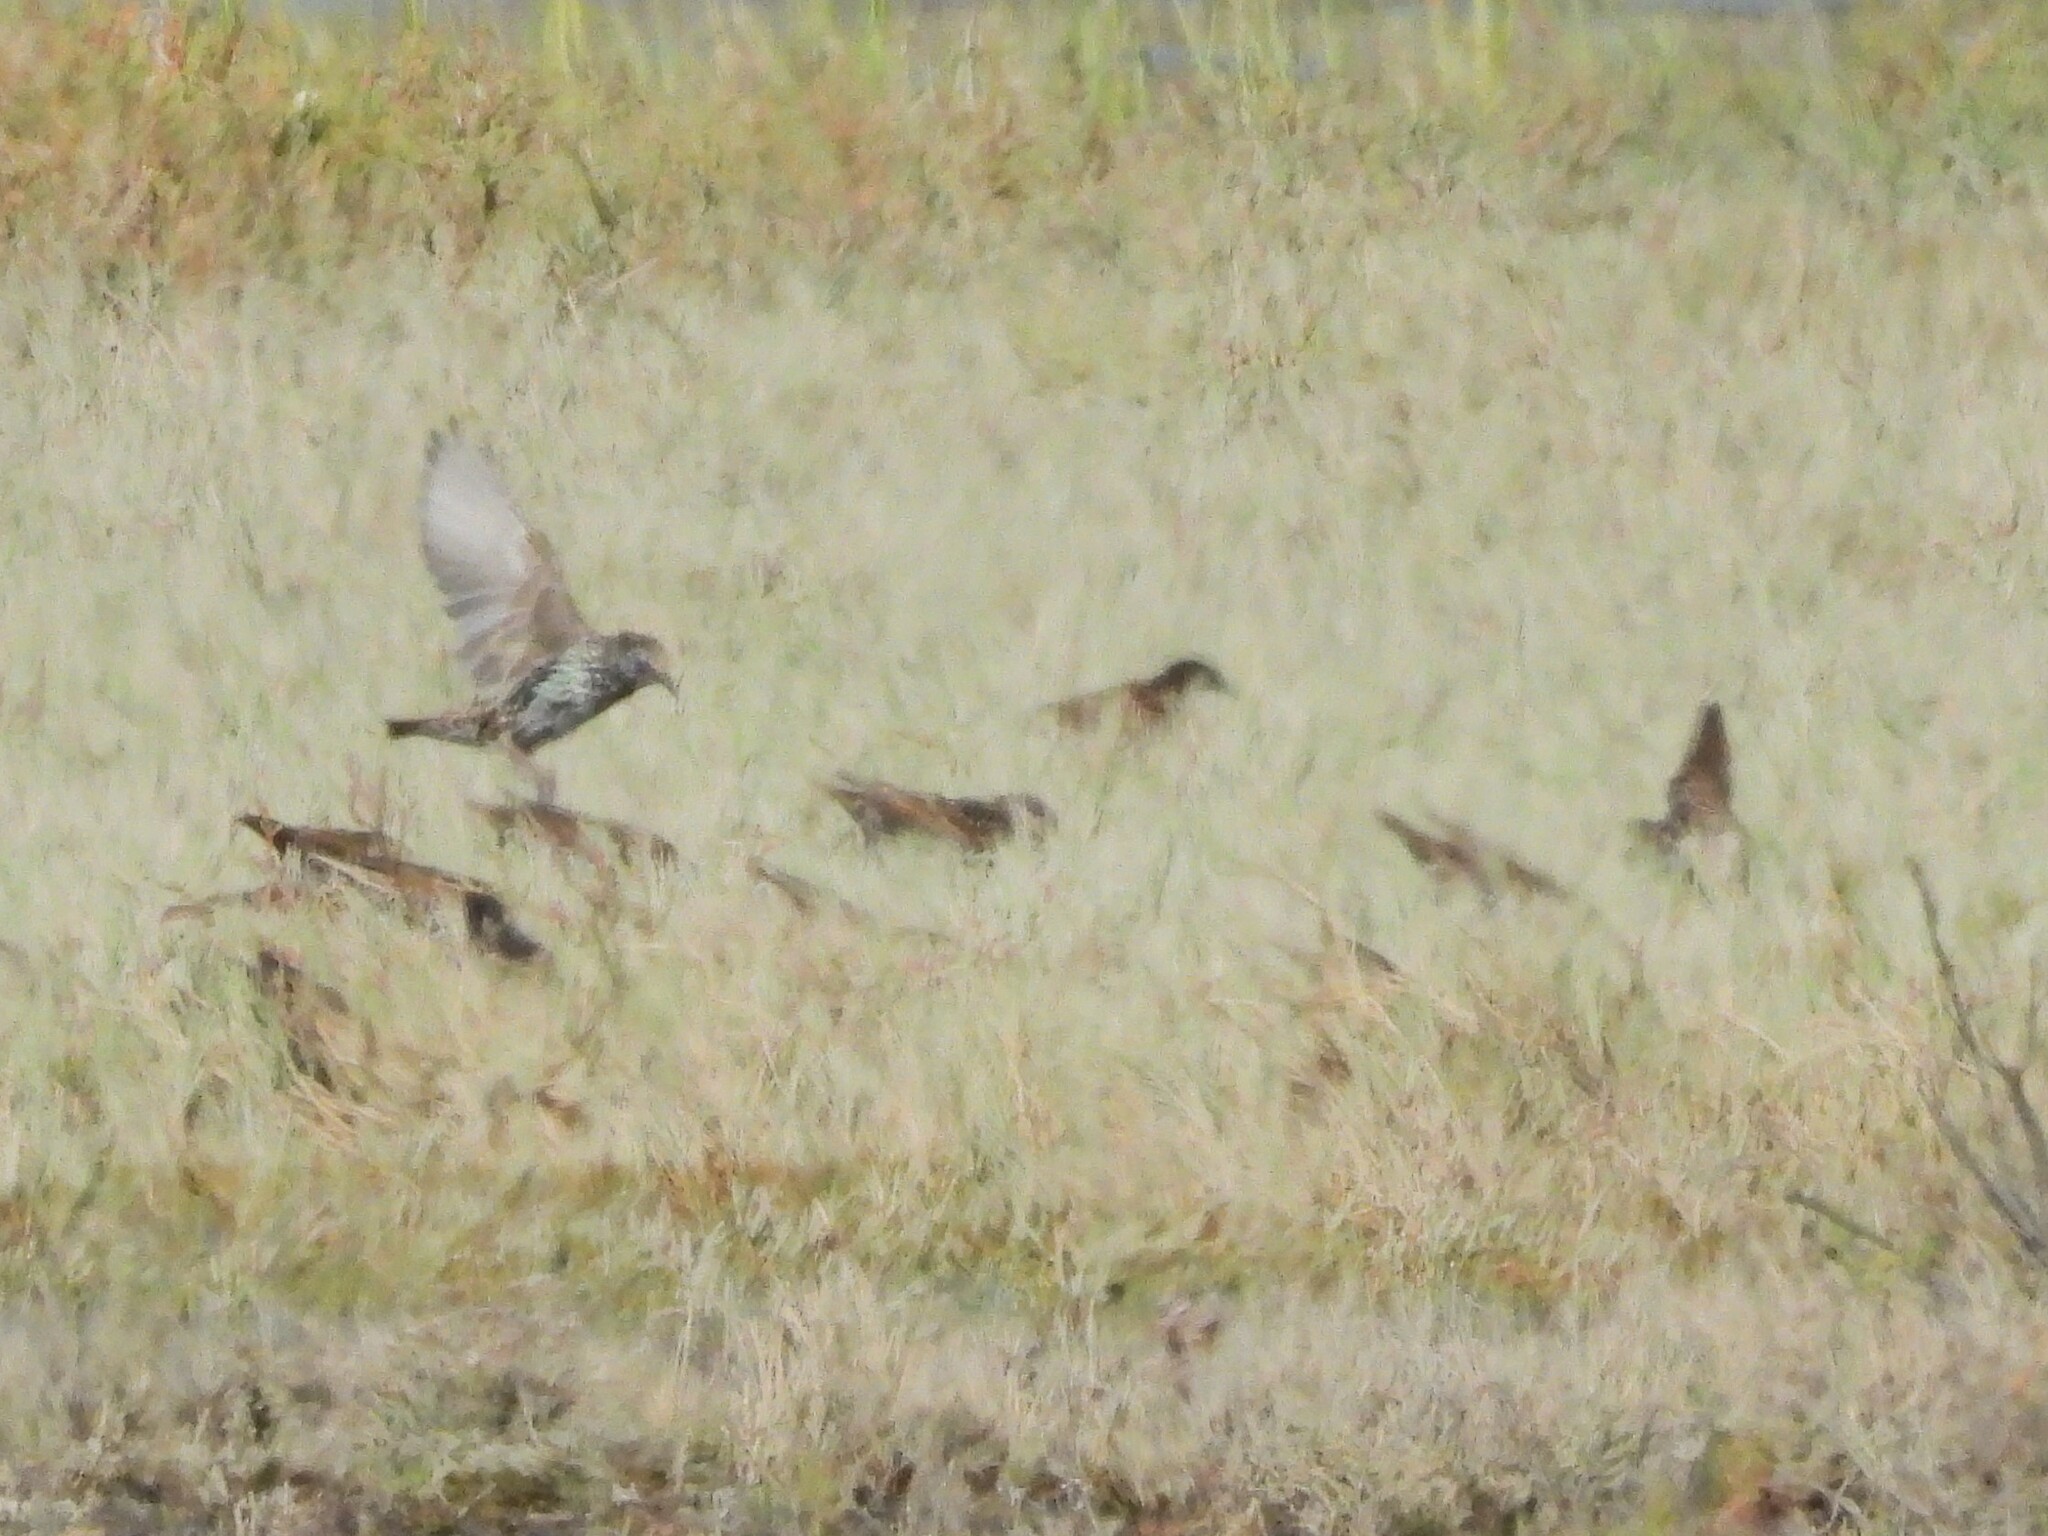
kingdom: Animalia
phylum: Chordata
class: Aves
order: Passeriformes
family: Sturnidae
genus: Sturnus
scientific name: Sturnus vulgaris
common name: Common starling
